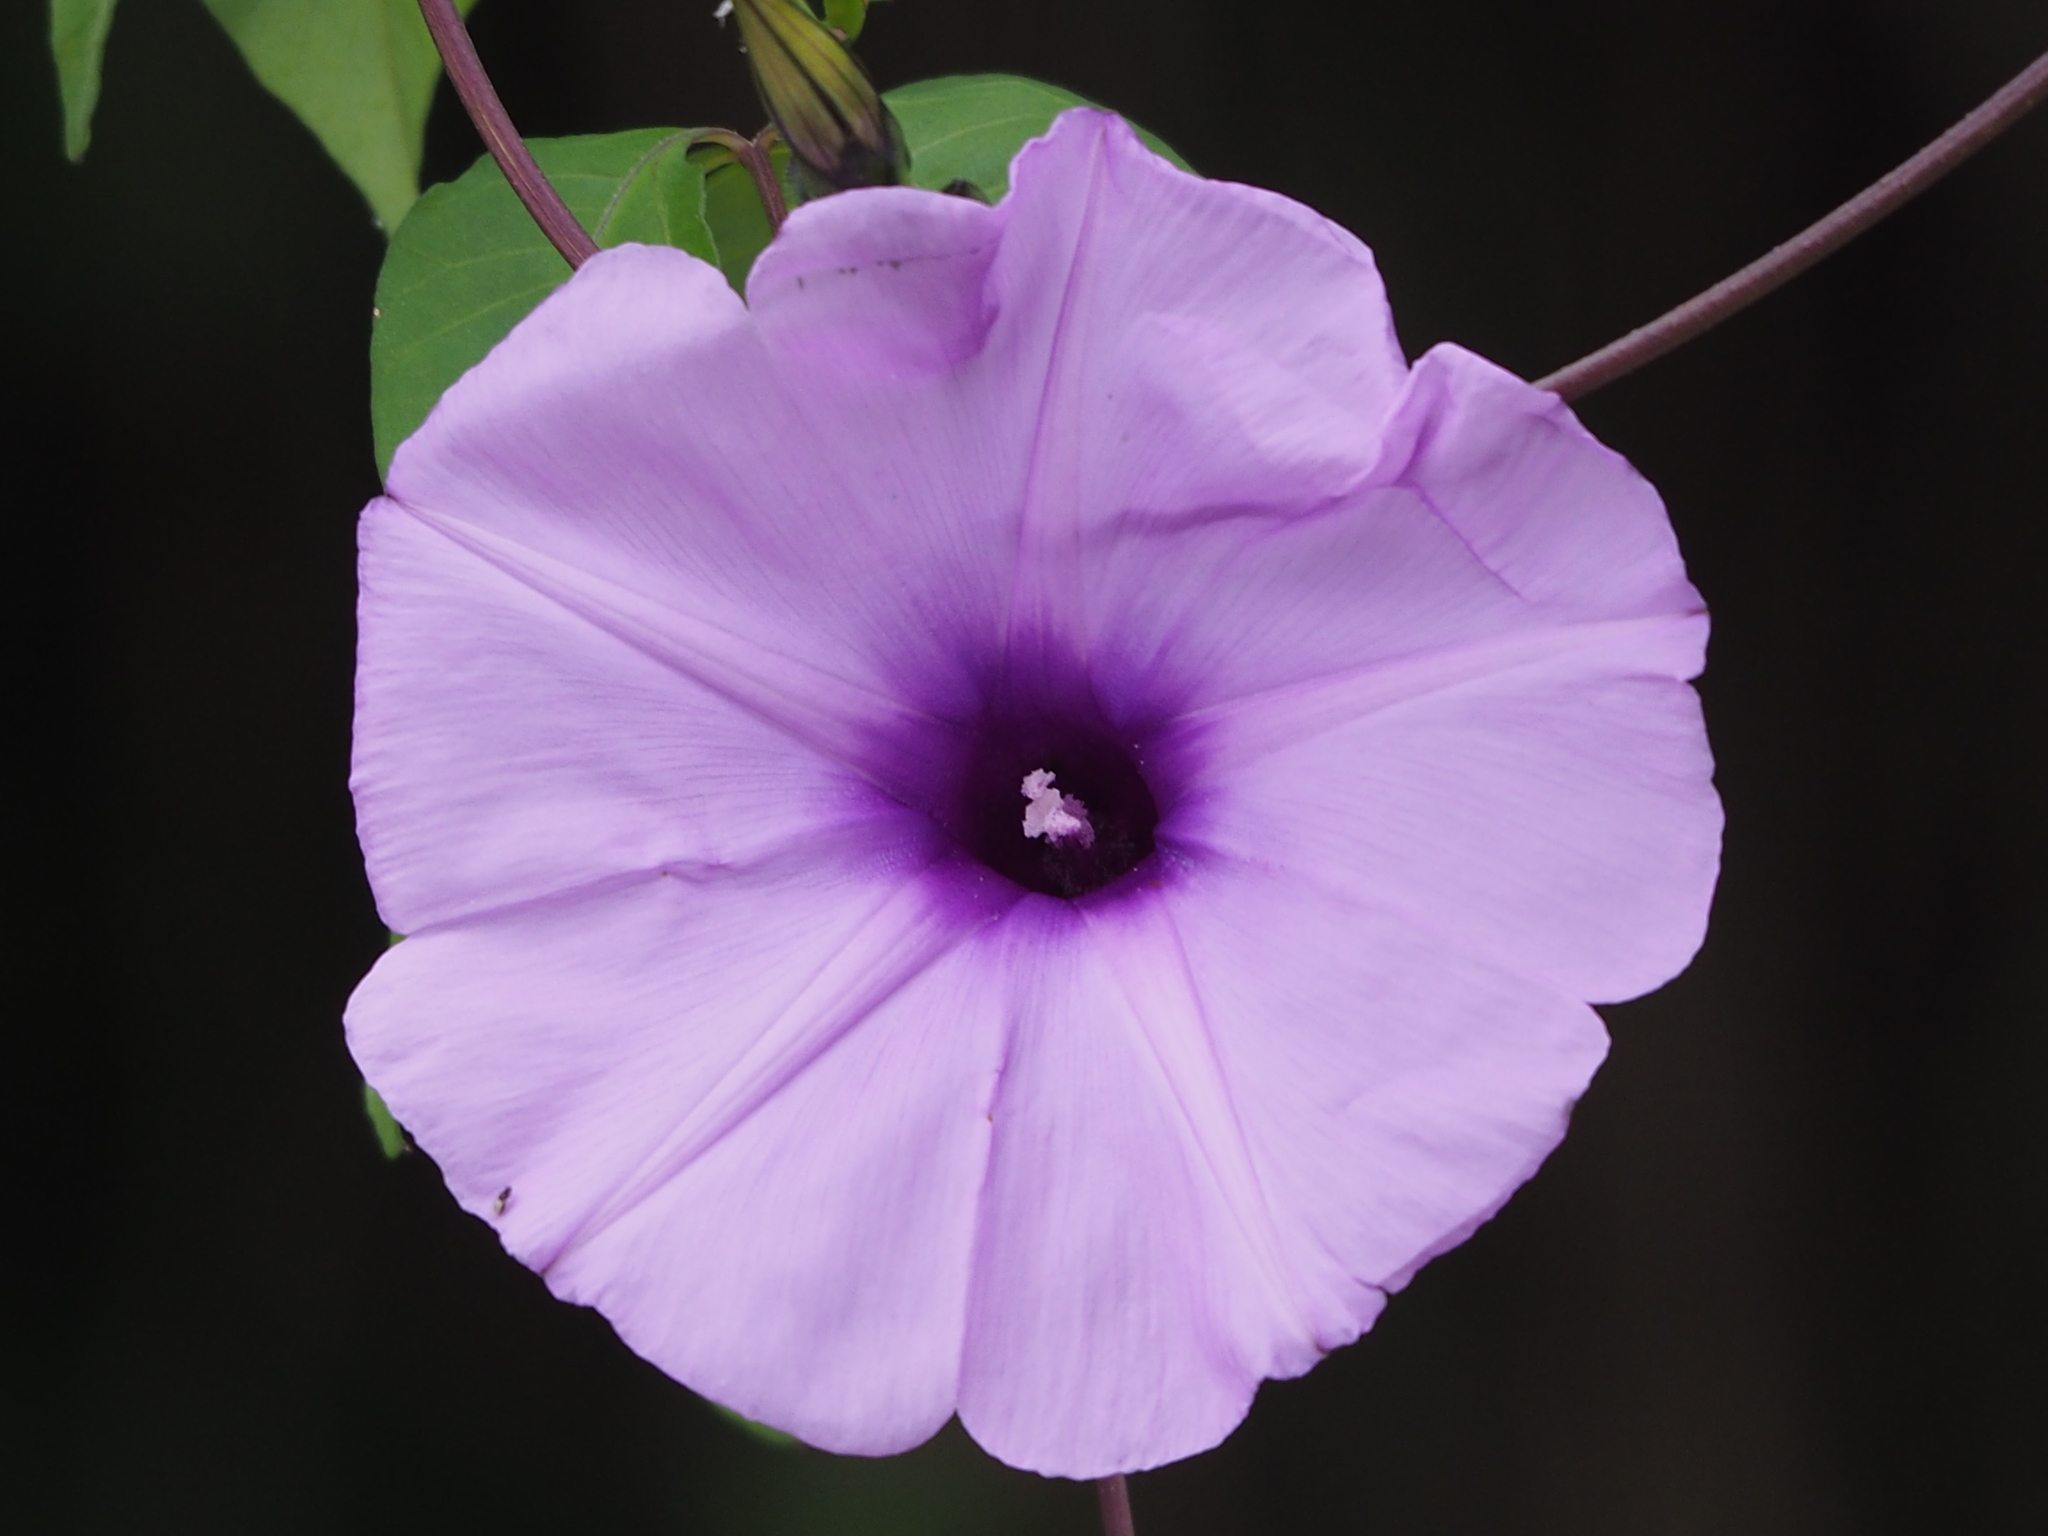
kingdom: Plantae
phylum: Tracheophyta
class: Magnoliopsida
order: Solanales
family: Convolvulaceae
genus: Ipomoea
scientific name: Ipomoea cairica
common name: Mile a minute vine
